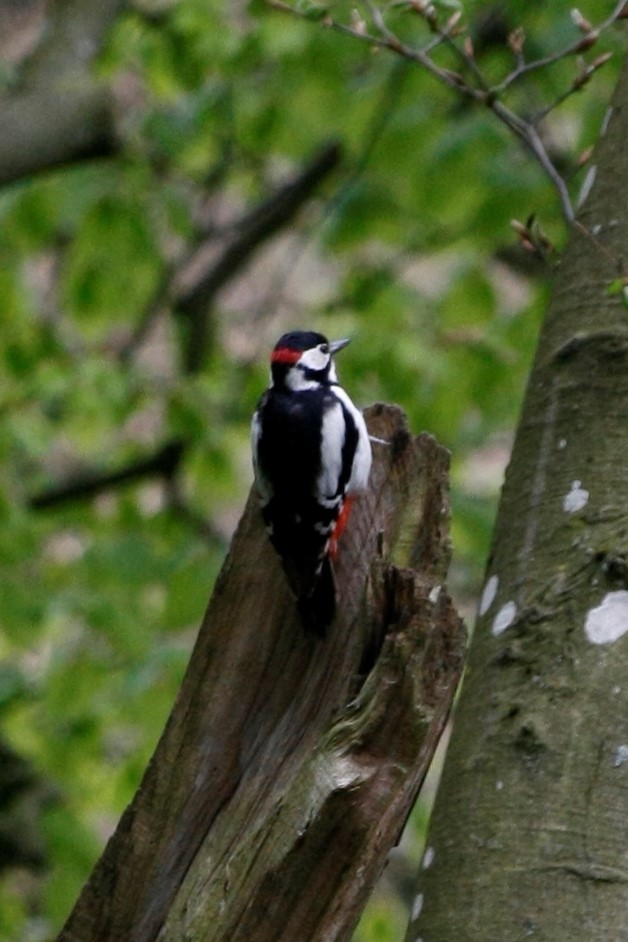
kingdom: Animalia
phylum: Chordata
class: Aves
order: Piciformes
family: Picidae
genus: Dendrocopos
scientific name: Dendrocopos major
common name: Great spotted woodpecker
